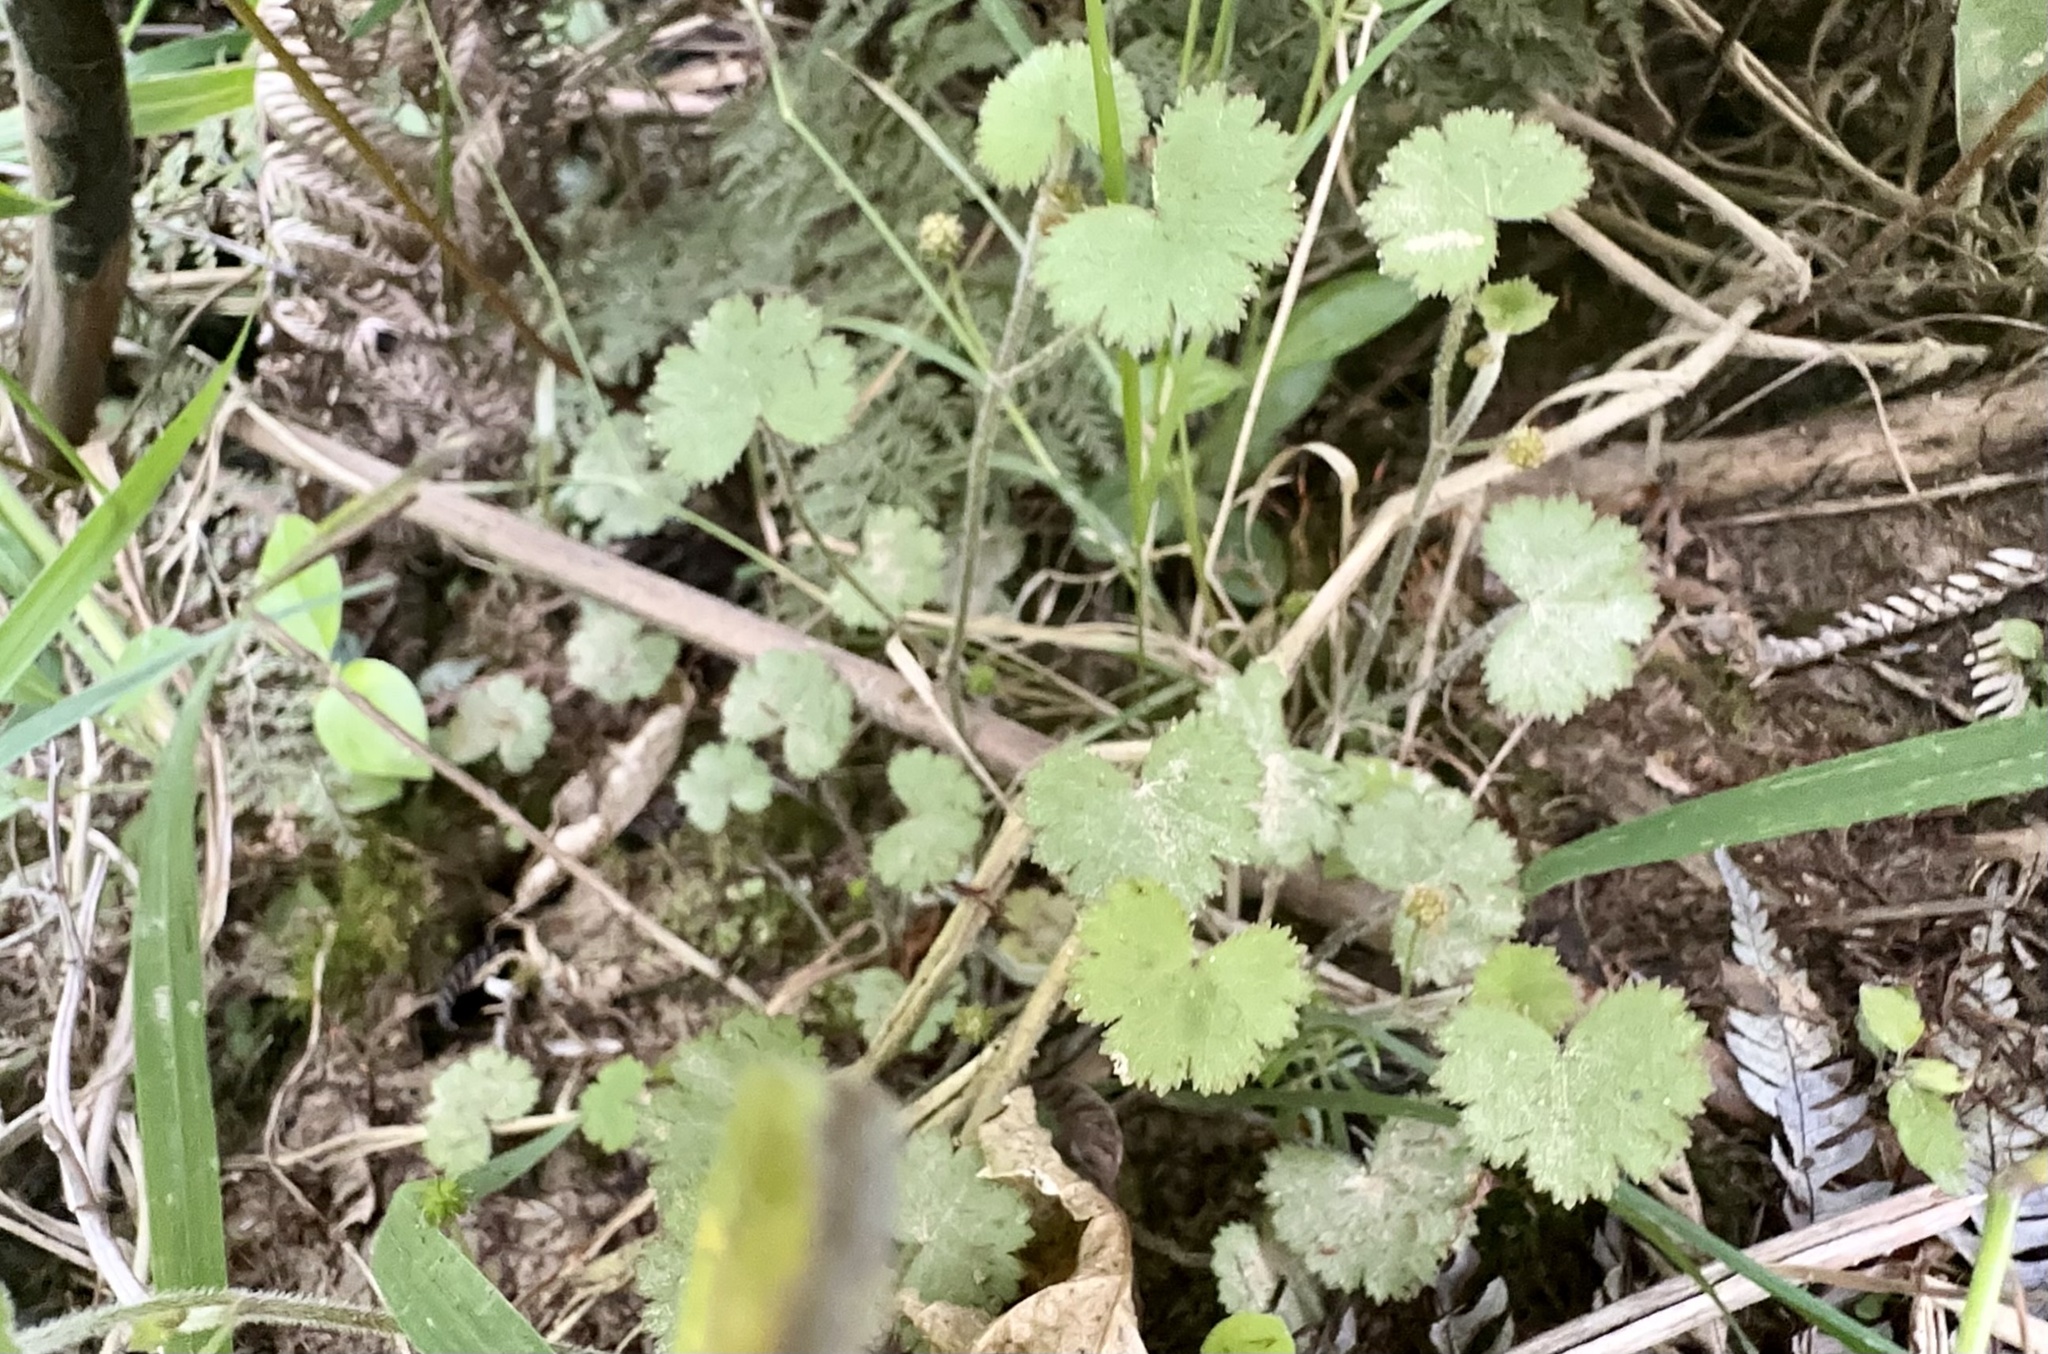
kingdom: Plantae
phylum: Tracheophyta
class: Magnoliopsida
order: Apiales
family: Araliaceae
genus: Hydrocotyle
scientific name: Hydrocotyle moschata
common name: Hairy pennywort
